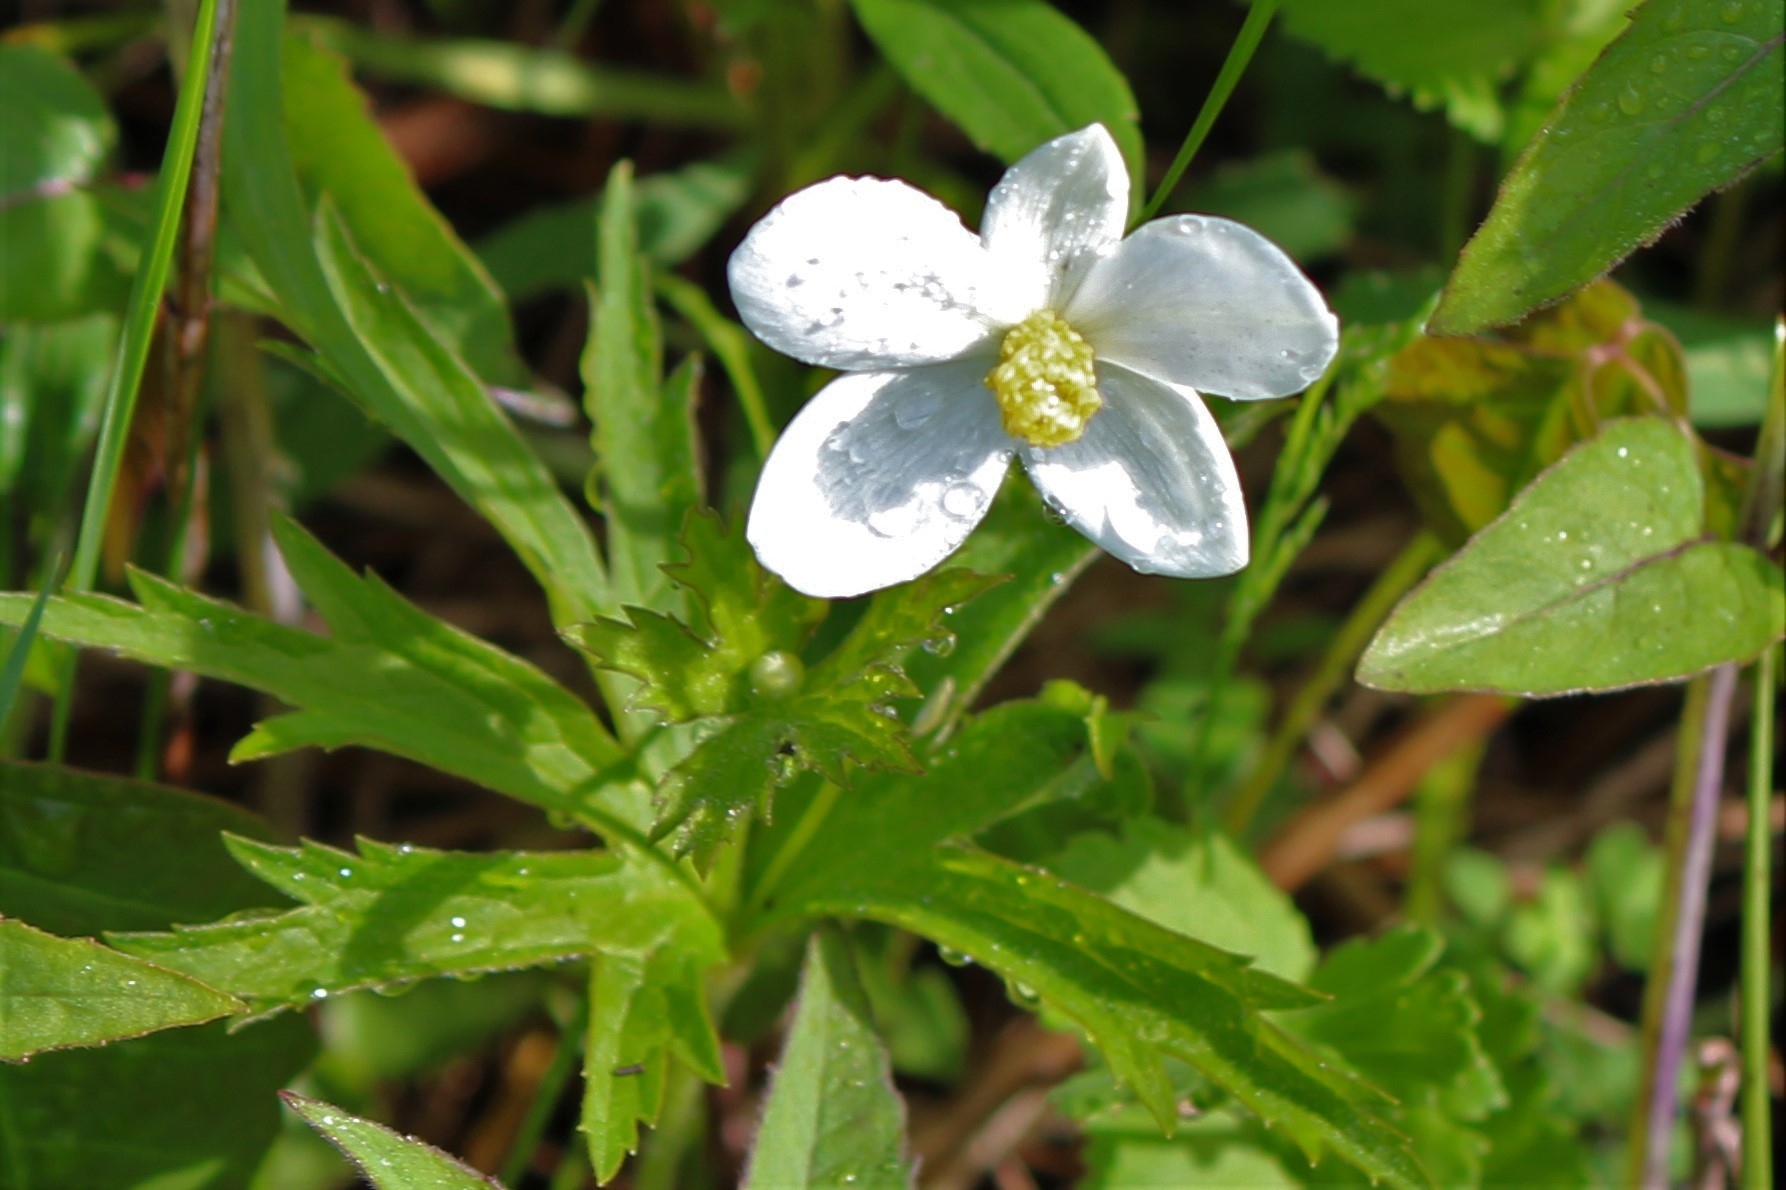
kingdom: Plantae
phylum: Tracheophyta
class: Magnoliopsida
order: Ranunculales
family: Ranunculaceae
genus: Anemonastrum
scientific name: Anemonastrum canadense
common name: Canada anemone
